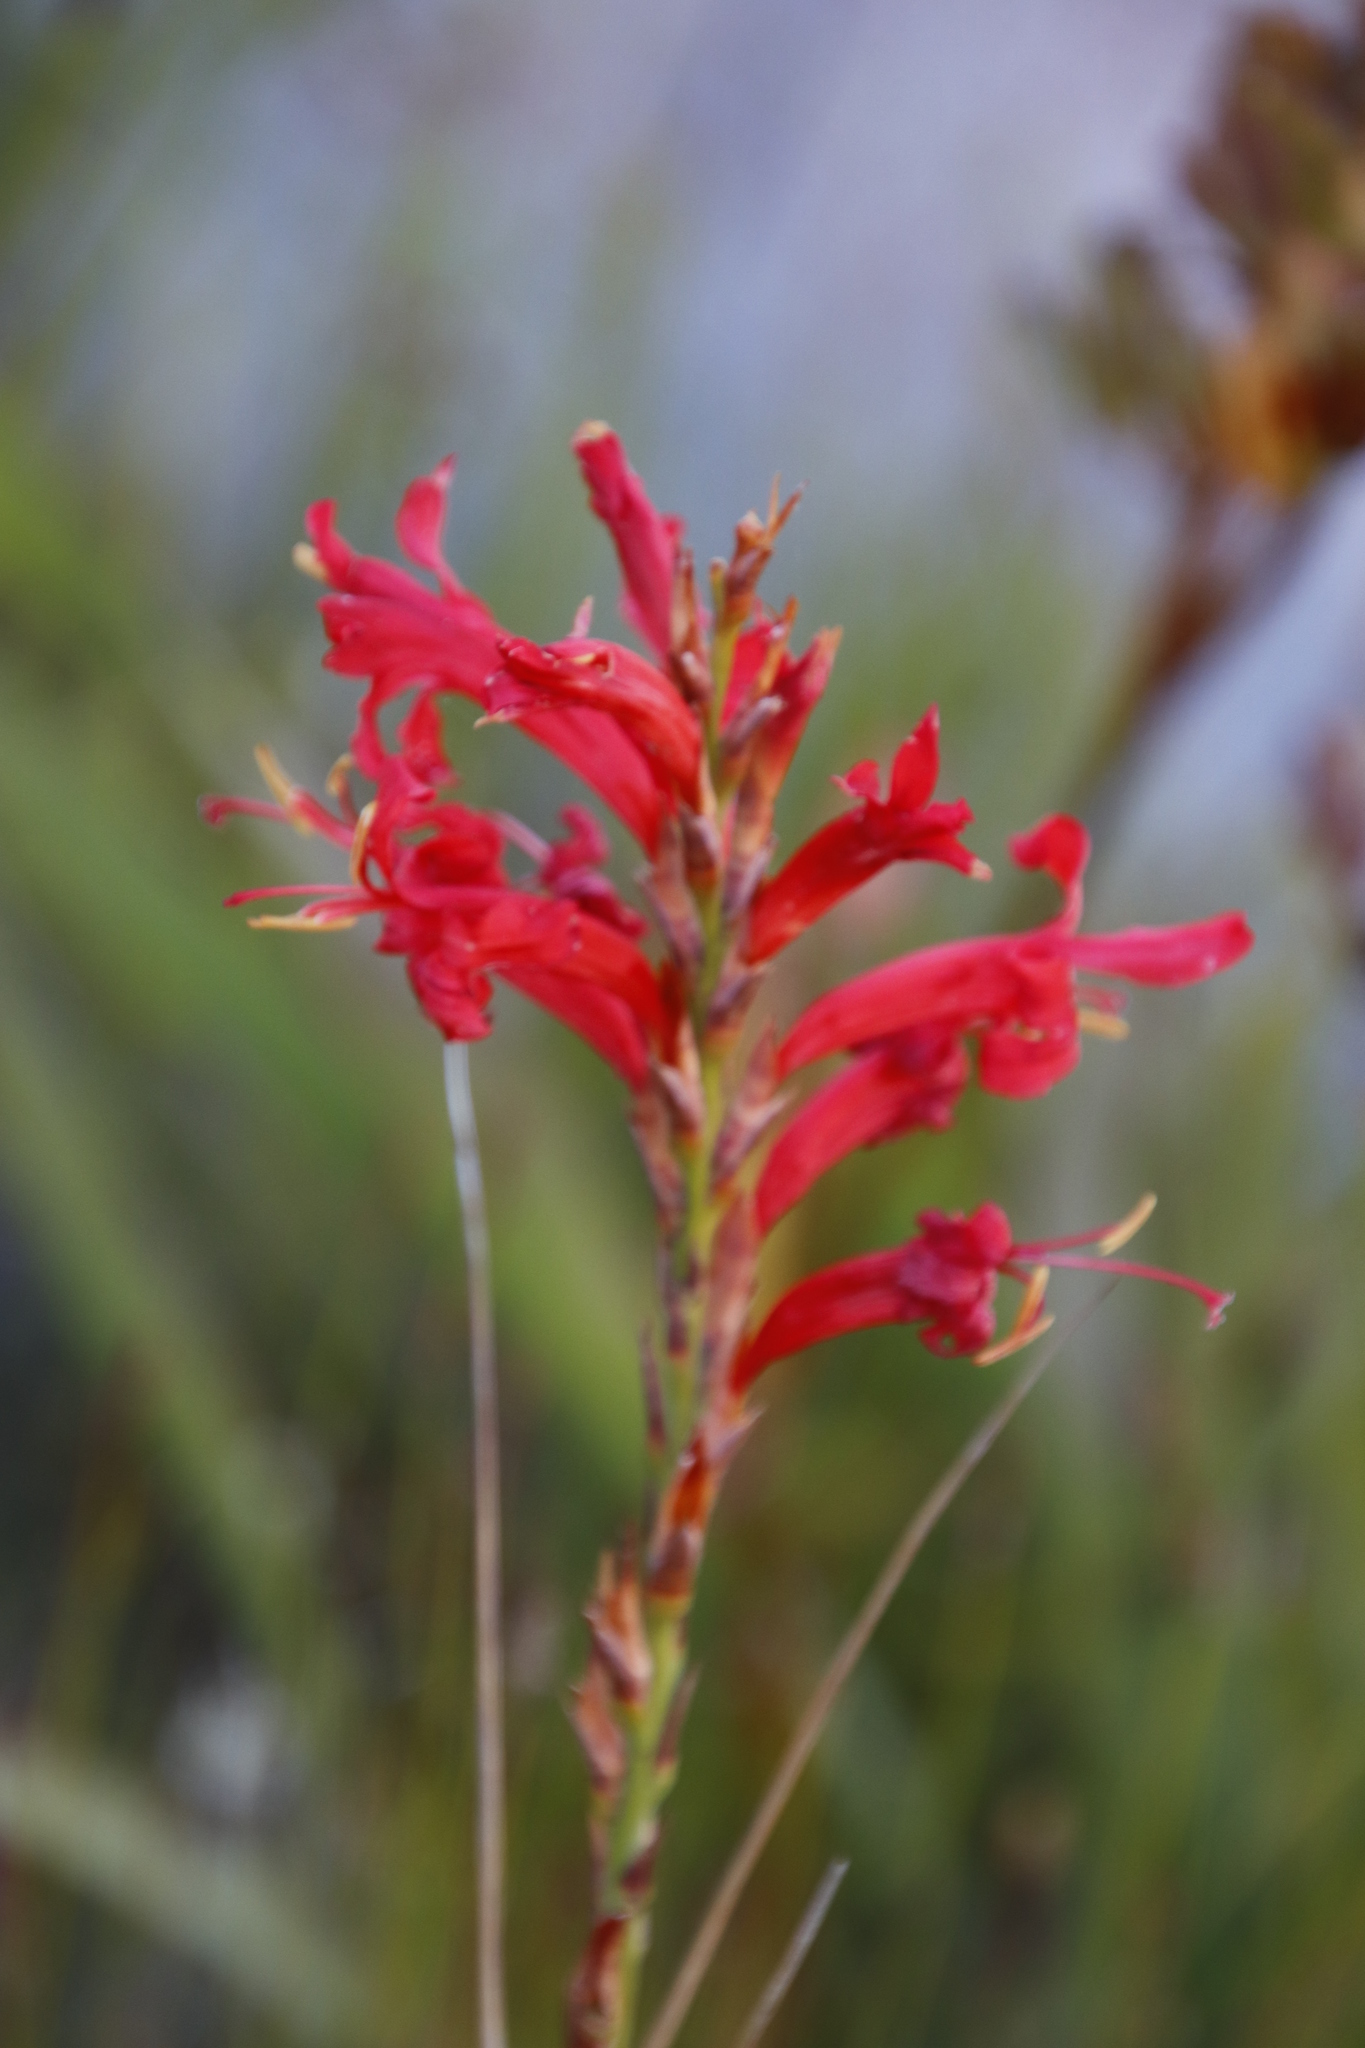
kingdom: Plantae
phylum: Tracheophyta
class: Liliopsida
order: Asparagales
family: Iridaceae
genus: Tritoniopsis
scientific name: Tritoniopsis triticea
